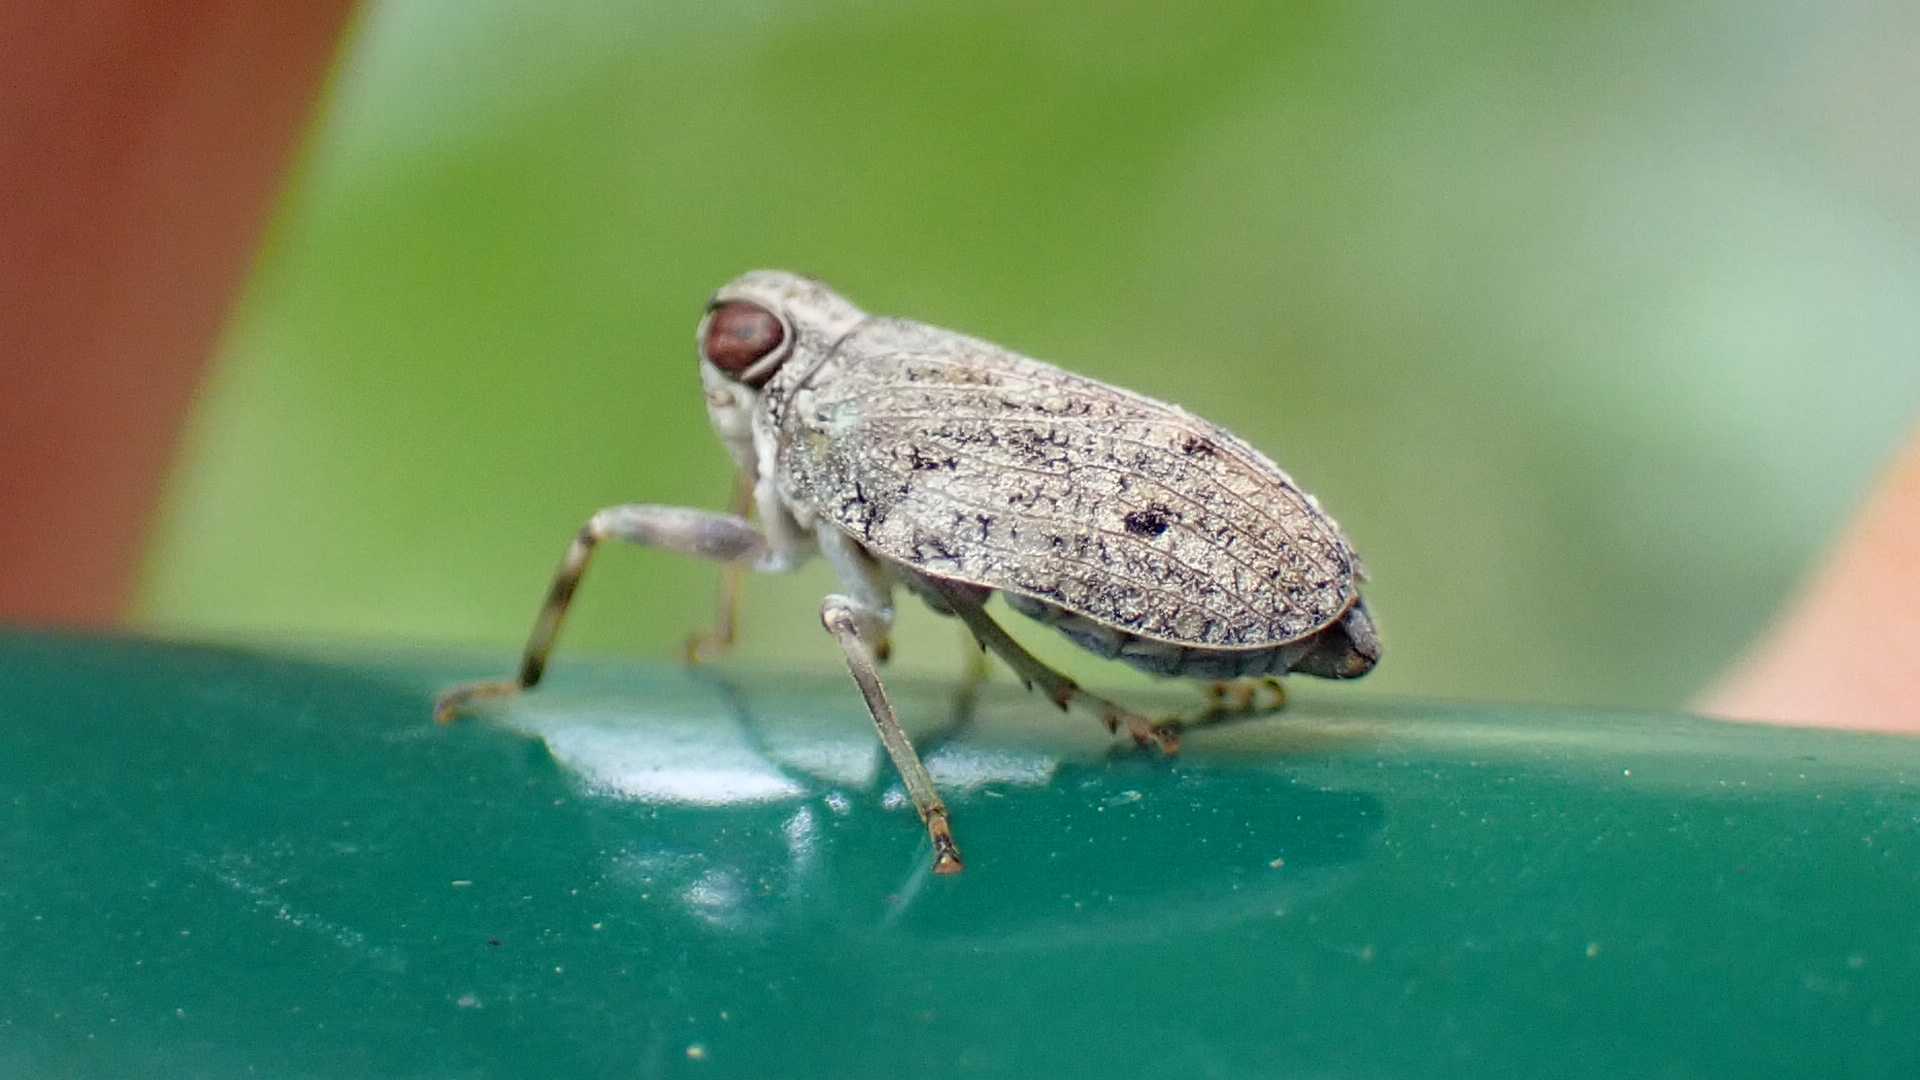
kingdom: Animalia
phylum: Arthropoda
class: Insecta
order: Hemiptera
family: Issidae
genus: Issus
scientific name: Issus coleoptratus
